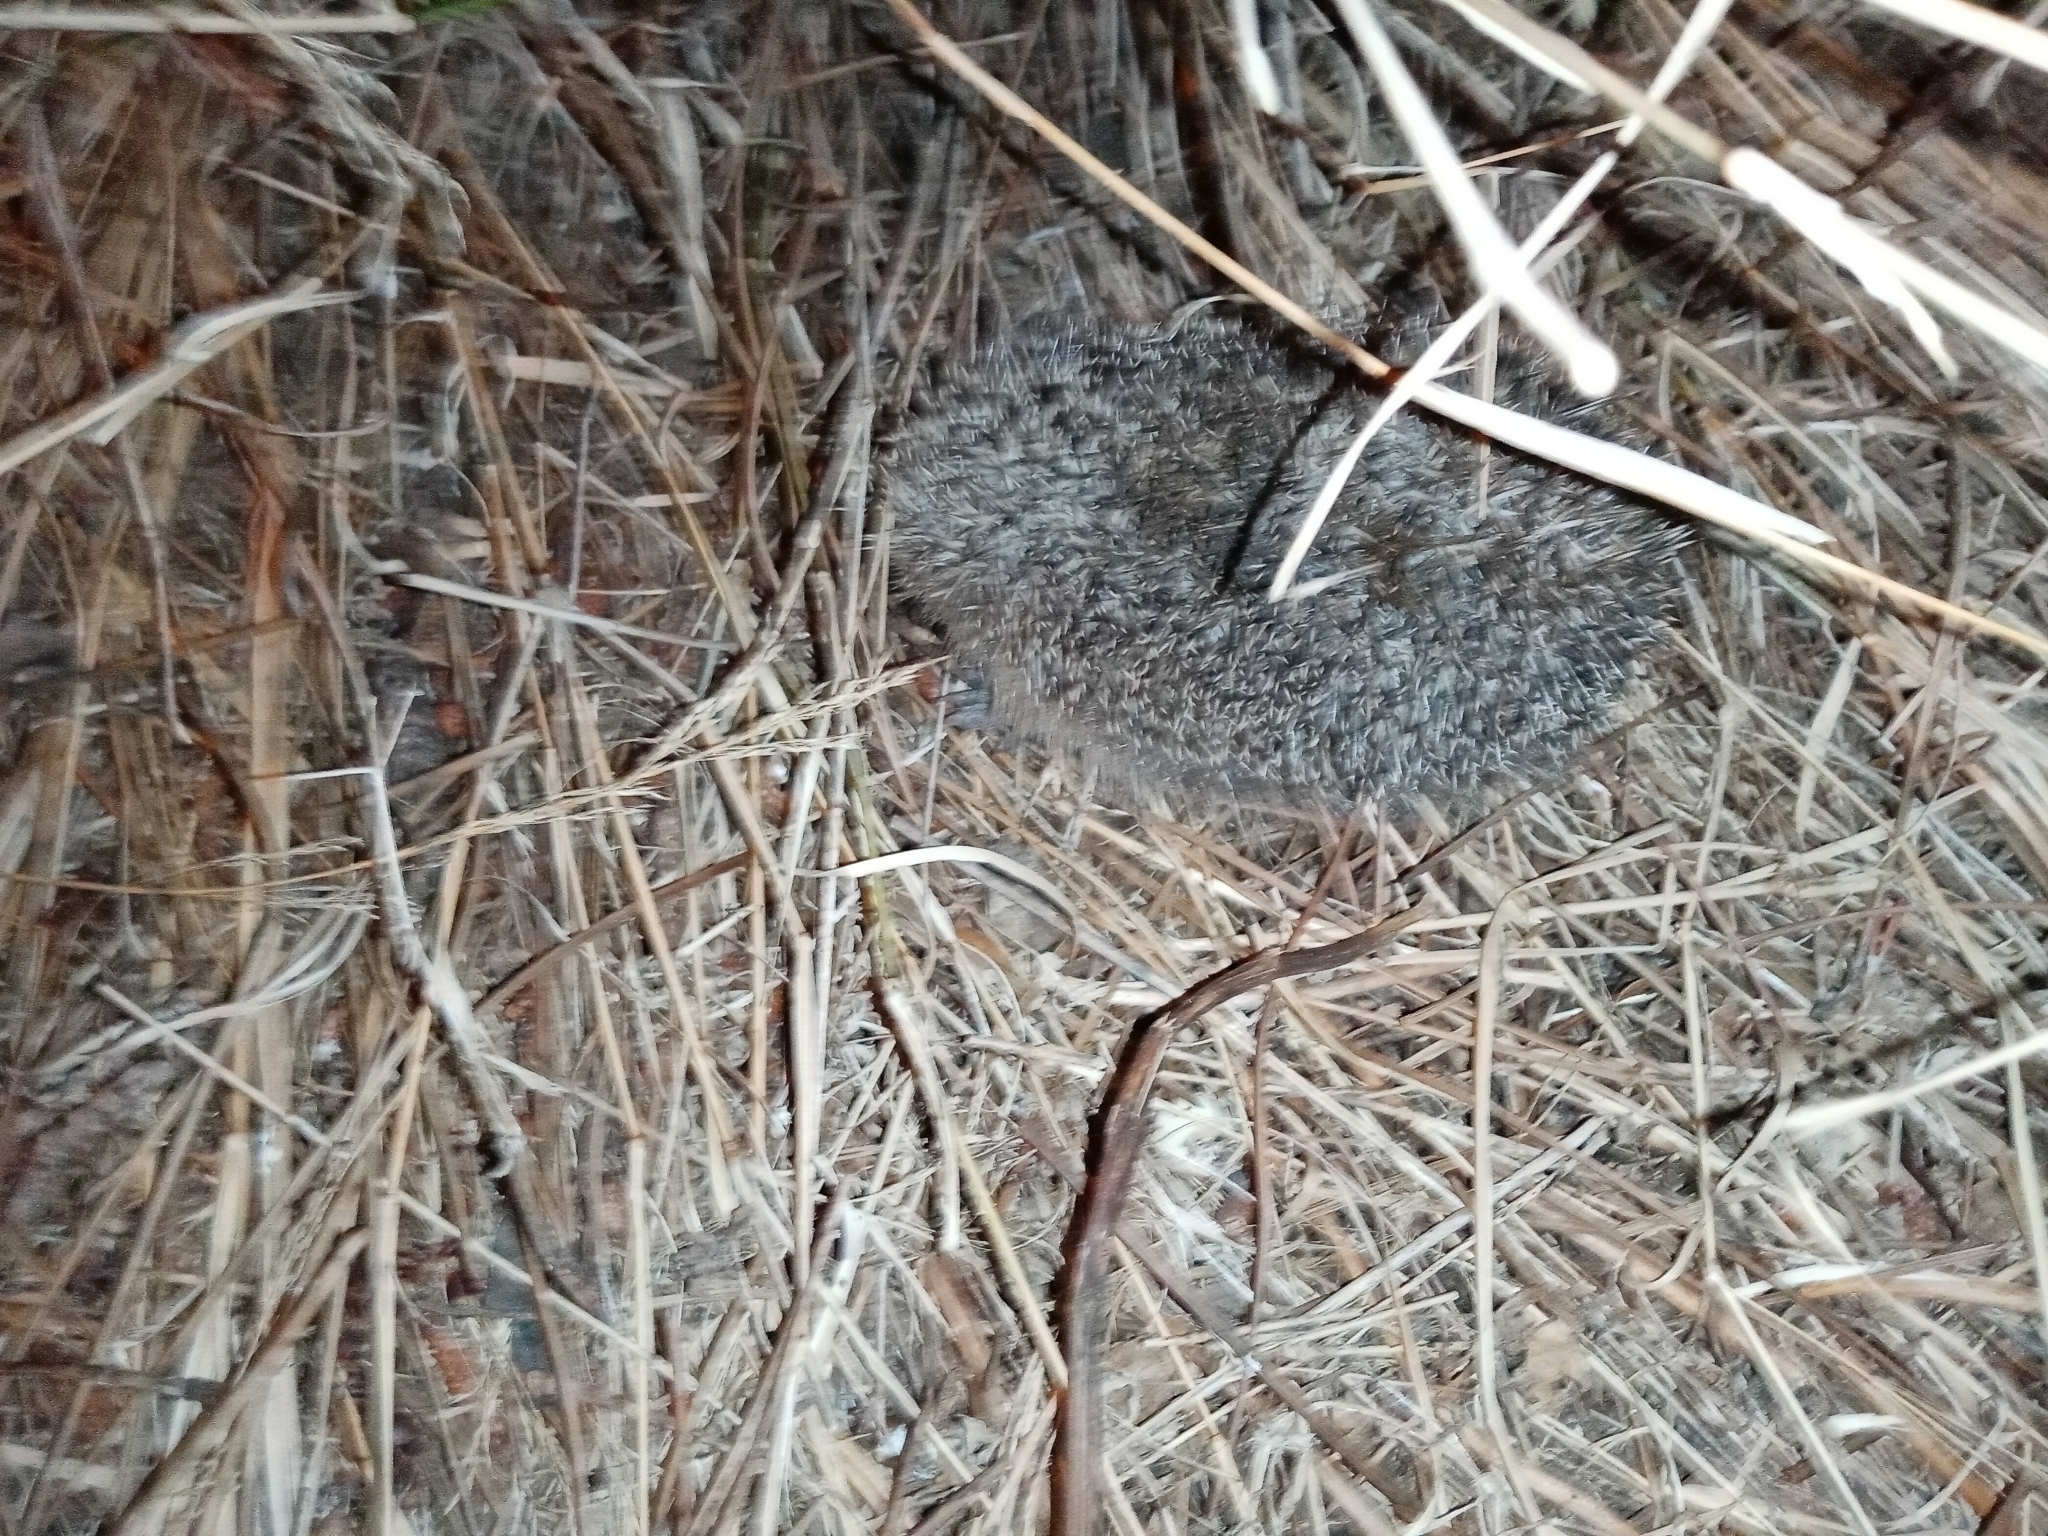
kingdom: Animalia
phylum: Chordata
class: Mammalia
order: Erinaceomorpha
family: Erinaceidae
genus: Erinaceus
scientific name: Erinaceus europaeus
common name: West european hedgehog
